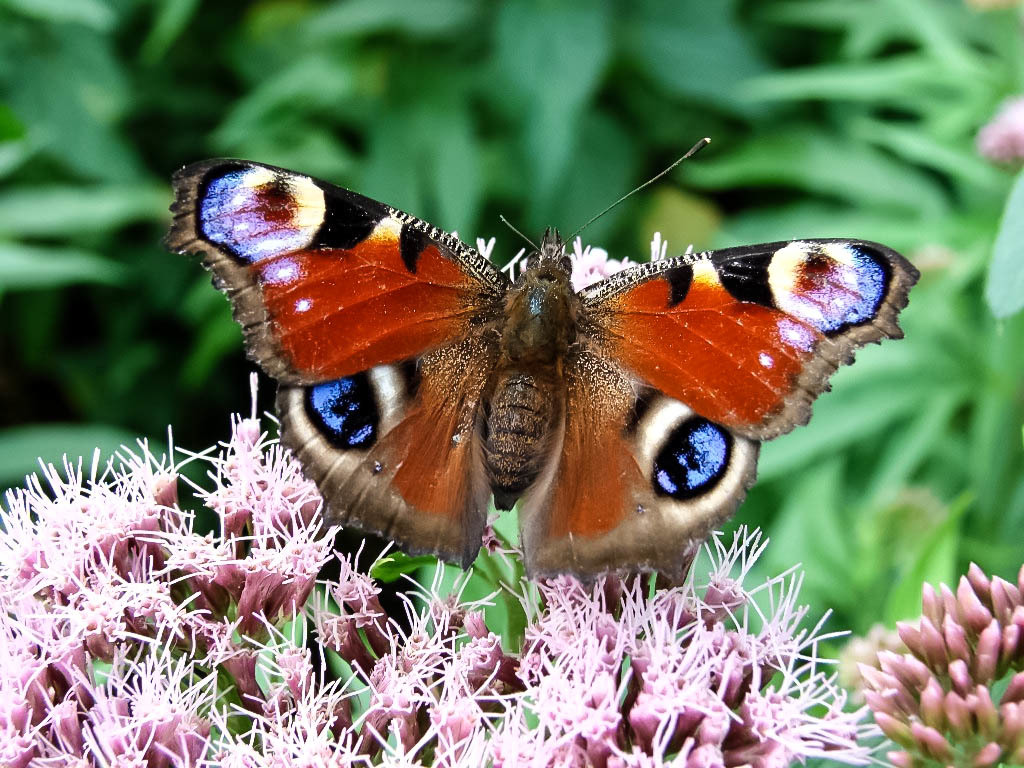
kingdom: Animalia
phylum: Arthropoda
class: Insecta
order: Lepidoptera
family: Nymphalidae
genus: Aglais
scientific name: Aglais io
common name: Peacock
